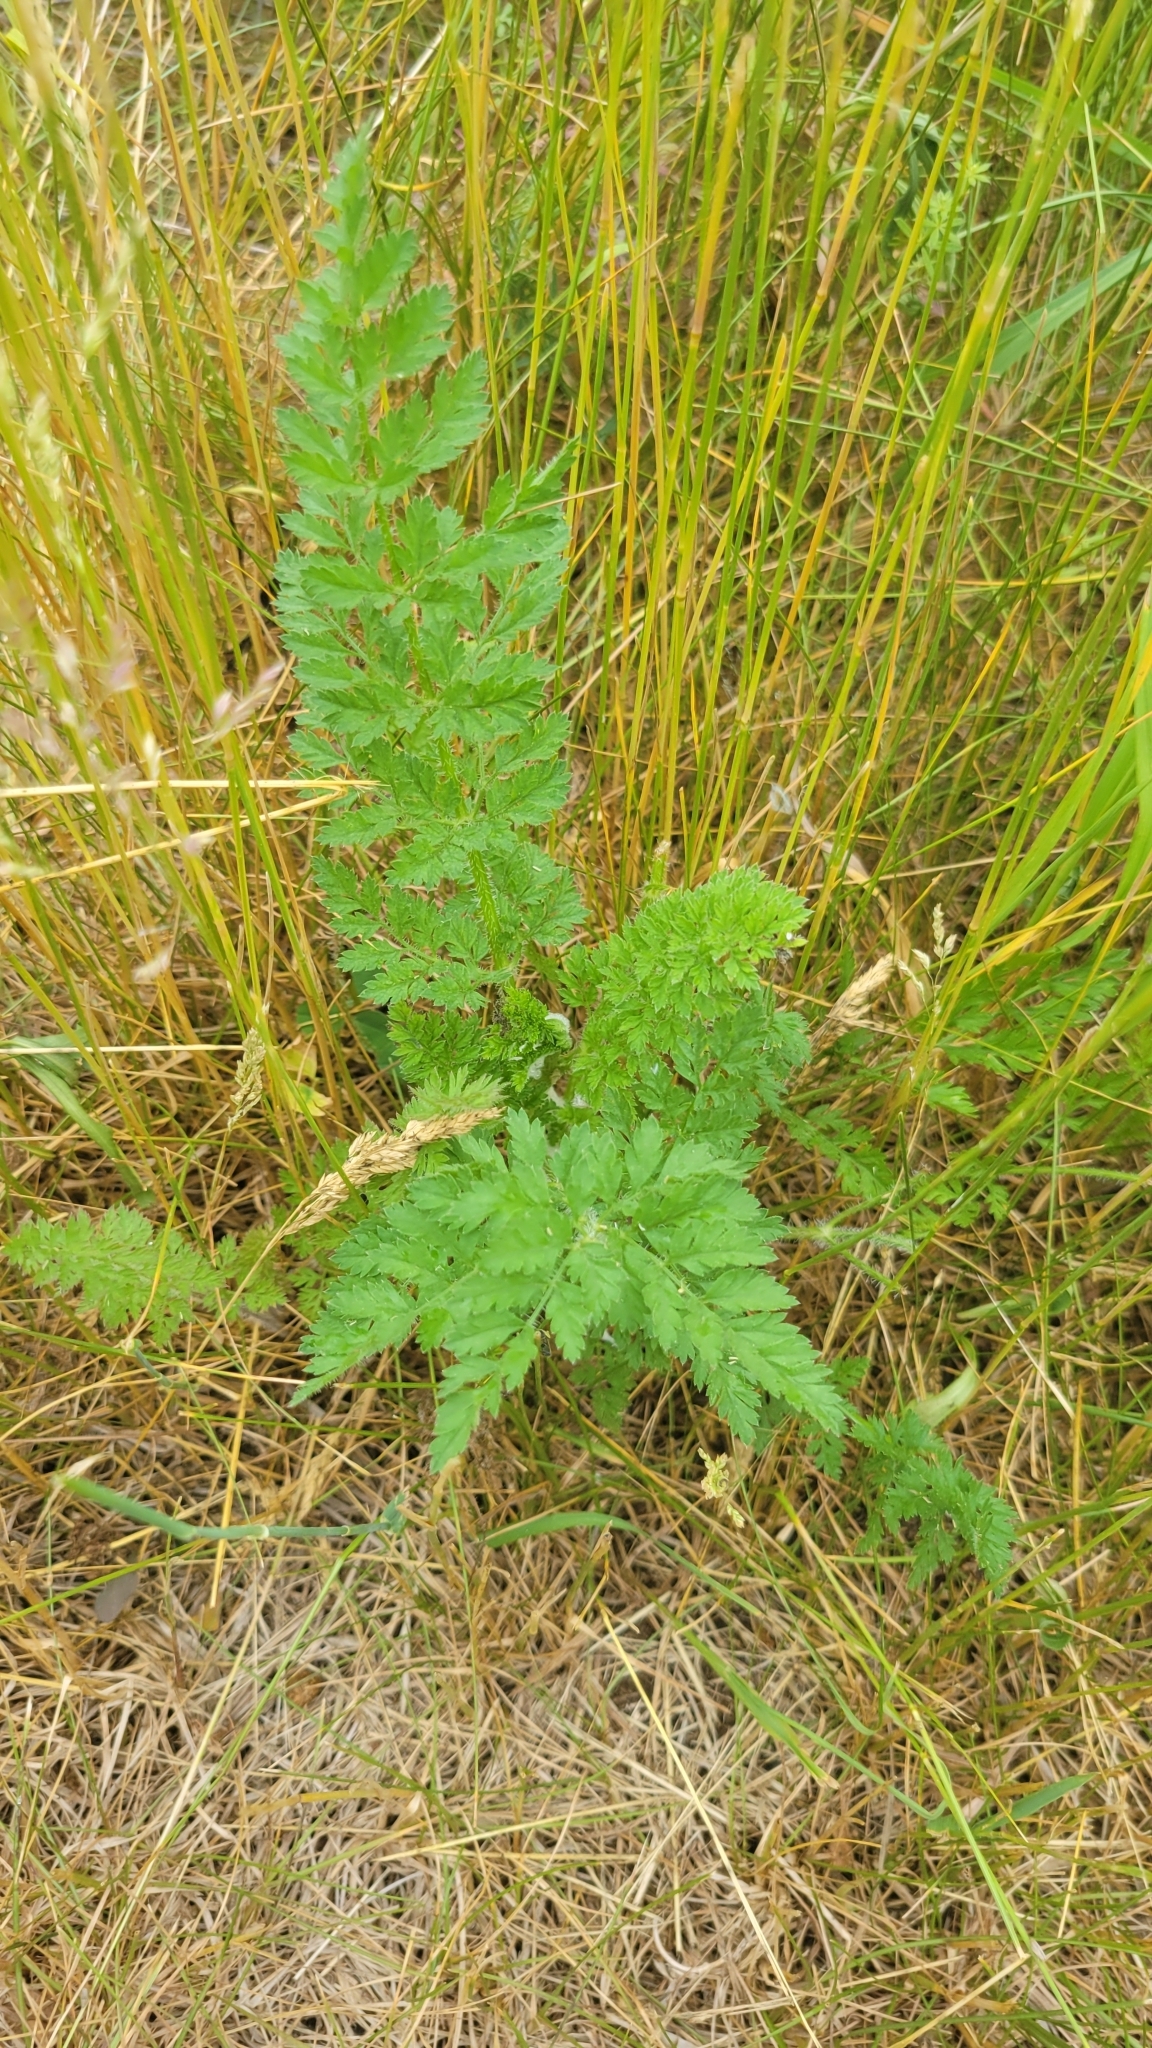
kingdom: Plantae
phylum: Tracheophyta
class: Magnoliopsida
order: Apiales
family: Apiaceae
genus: Daucus
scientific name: Daucus carota
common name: Wild carrot
